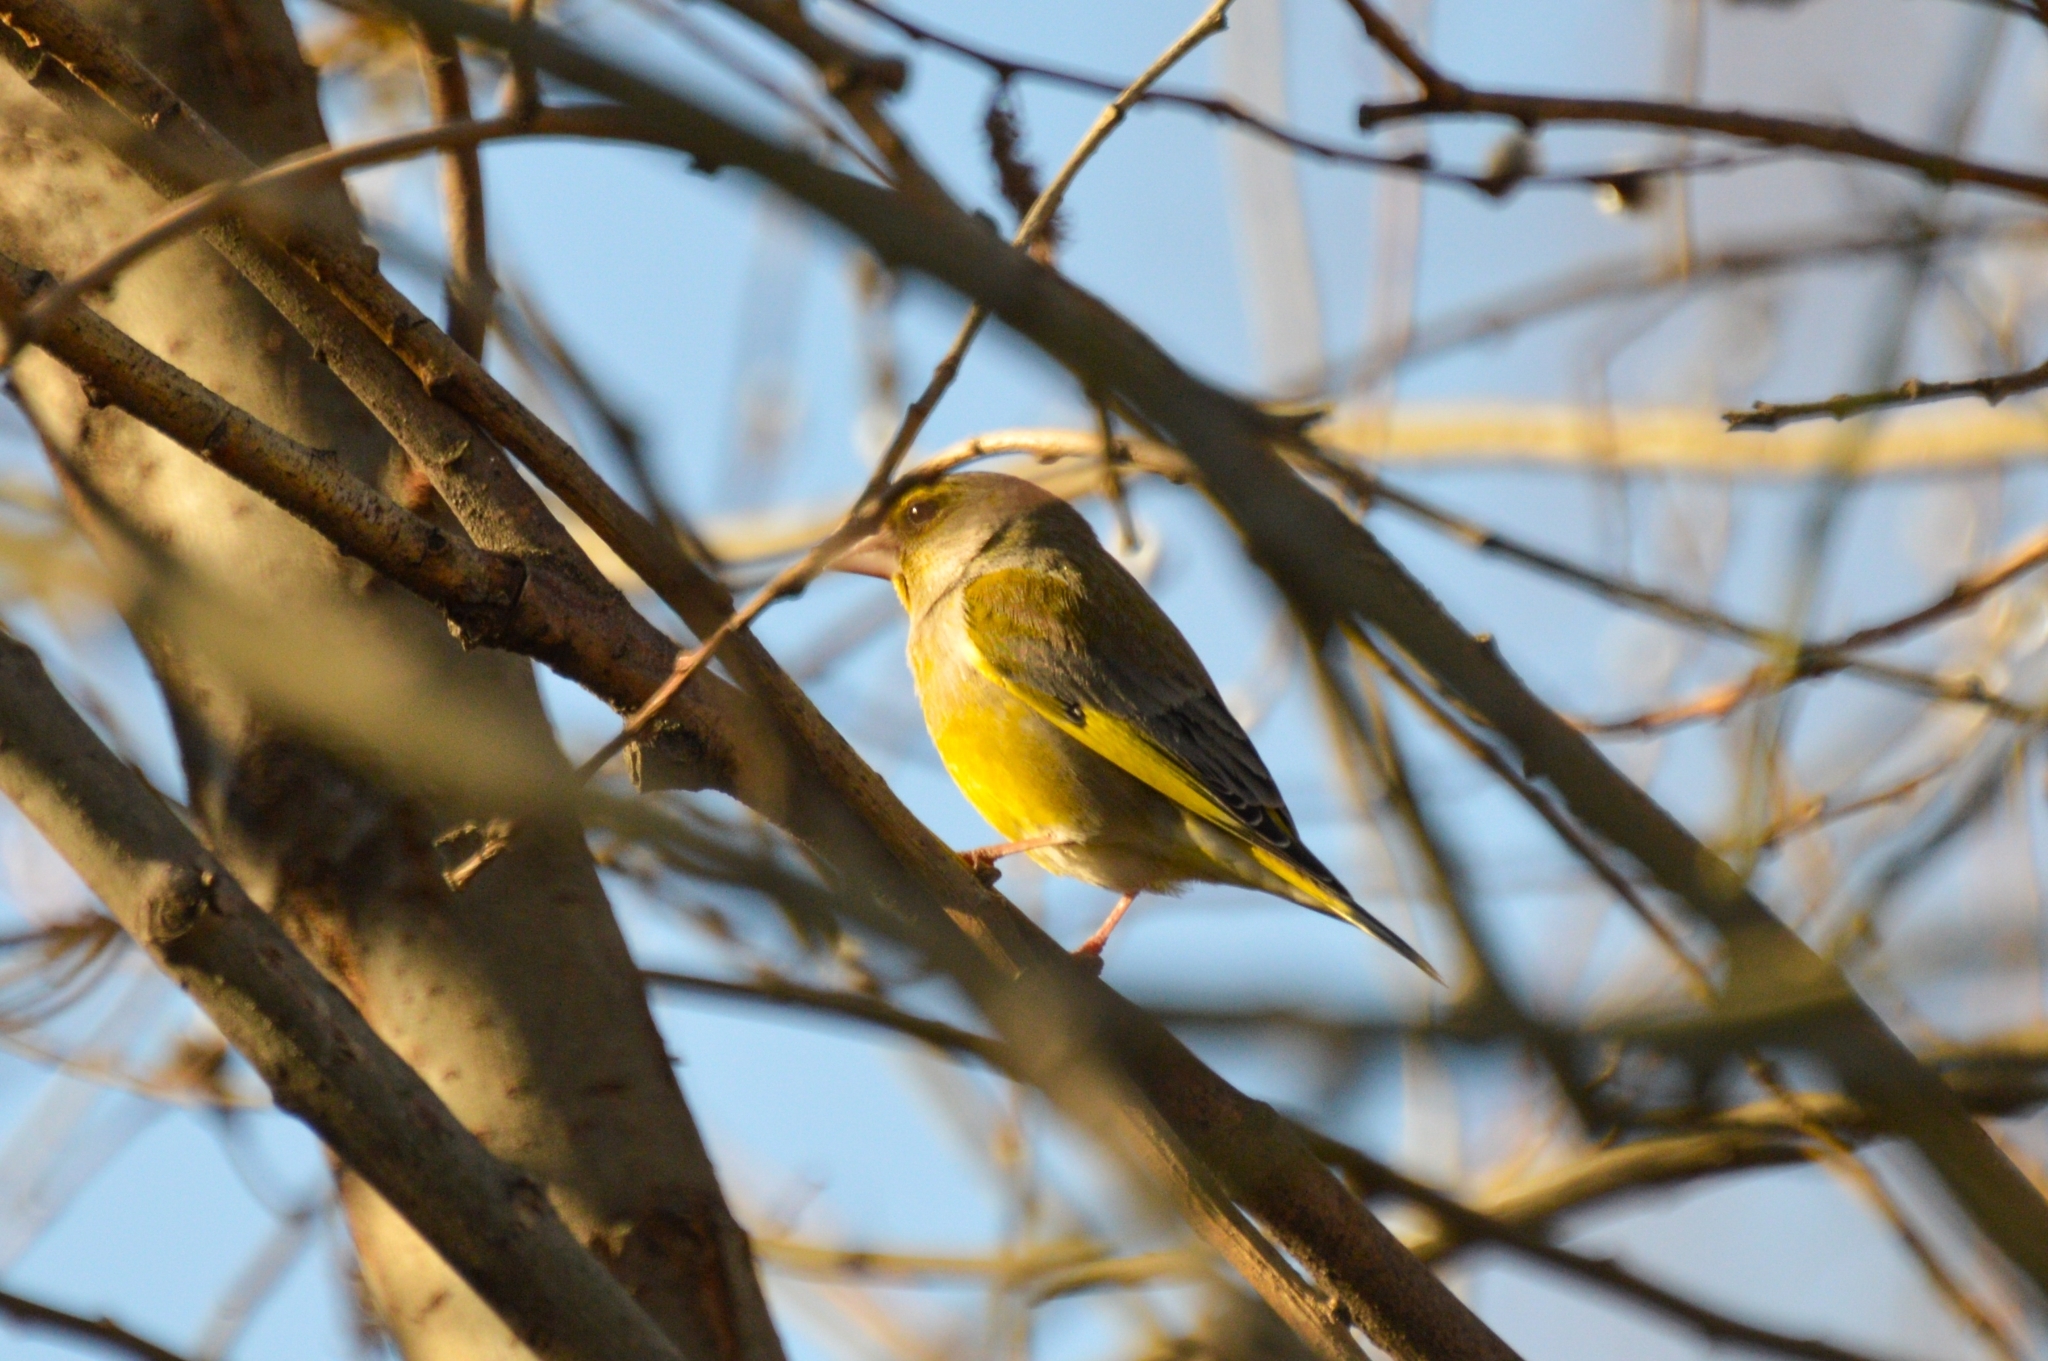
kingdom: Plantae
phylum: Tracheophyta
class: Liliopsida
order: Poales
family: Poaceae
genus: Chloris
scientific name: Chloris chloris
